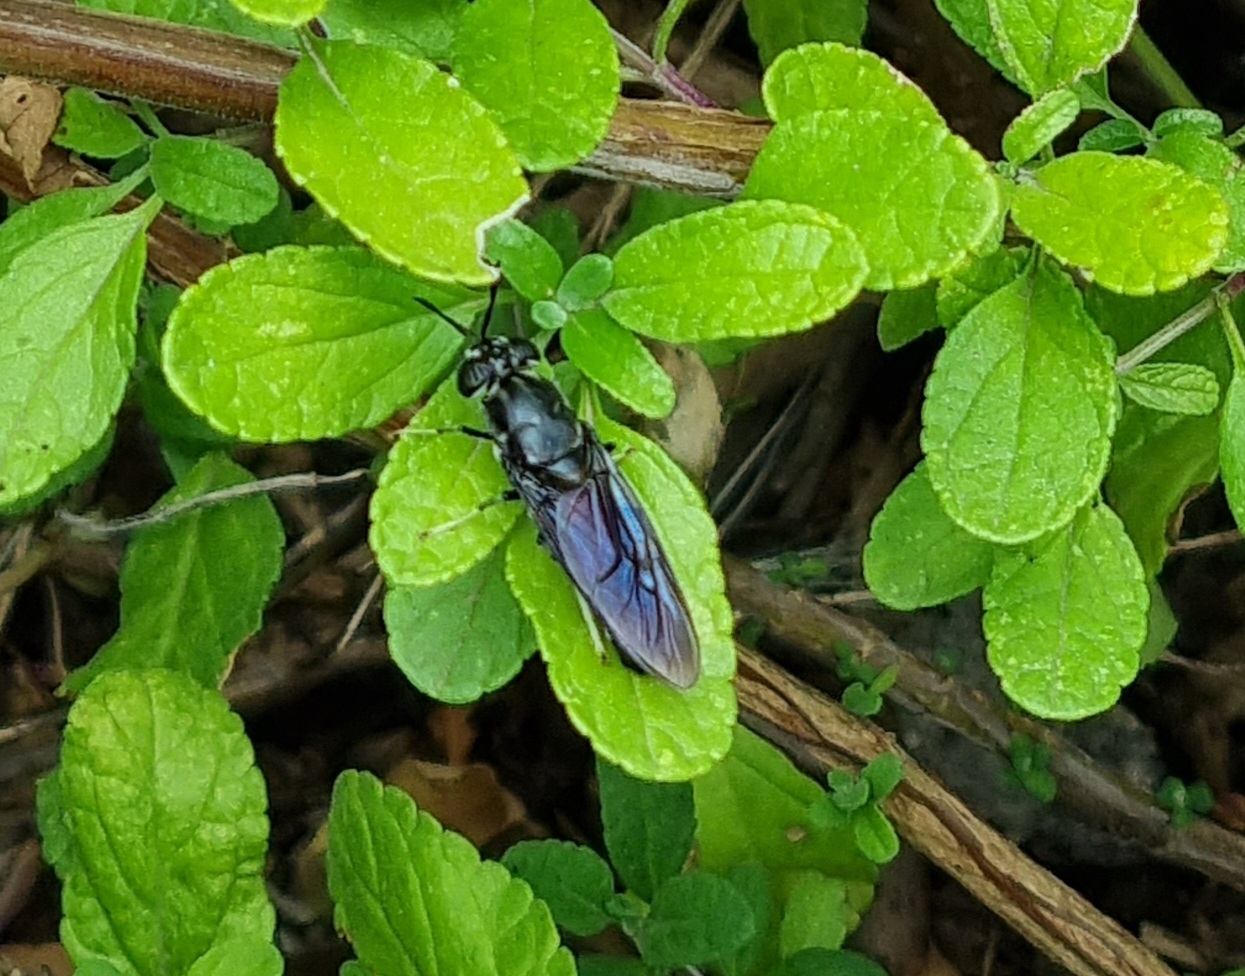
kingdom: Animalia
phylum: Arthropoda
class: Insecta
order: Diptera
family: Stratiomyidae
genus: Hermetia
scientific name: Hermetia illucens
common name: Black soldier fly
